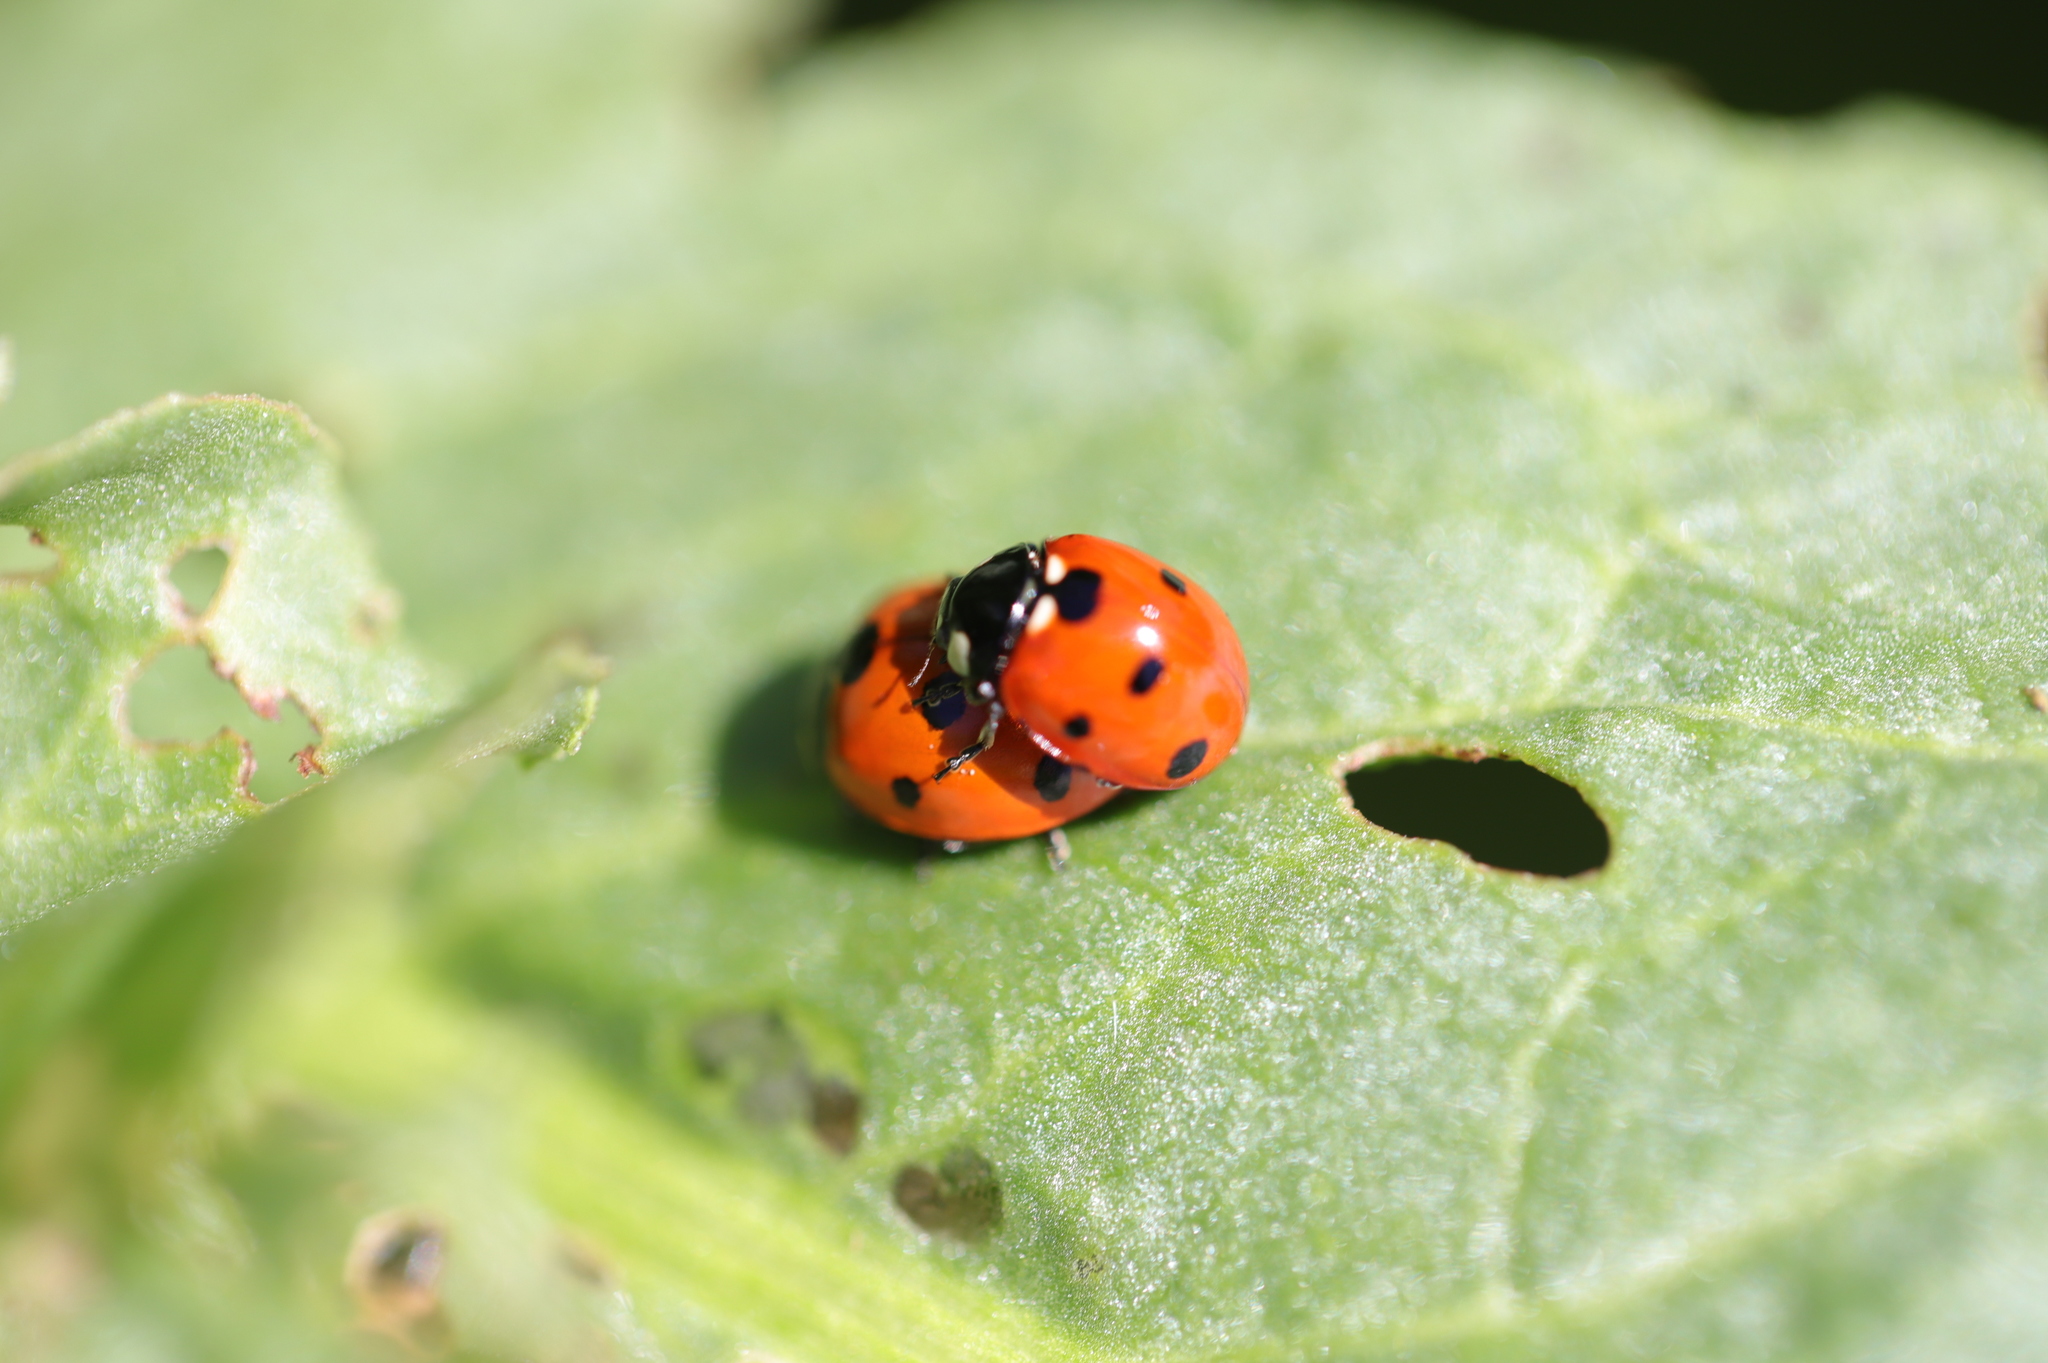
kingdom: Animalia
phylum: Arthropoda
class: Insecta
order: Coleoptera
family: Coccinellidae
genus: Coccinella
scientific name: Coccinella septempunctata
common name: Sevenspotted lady beetle
